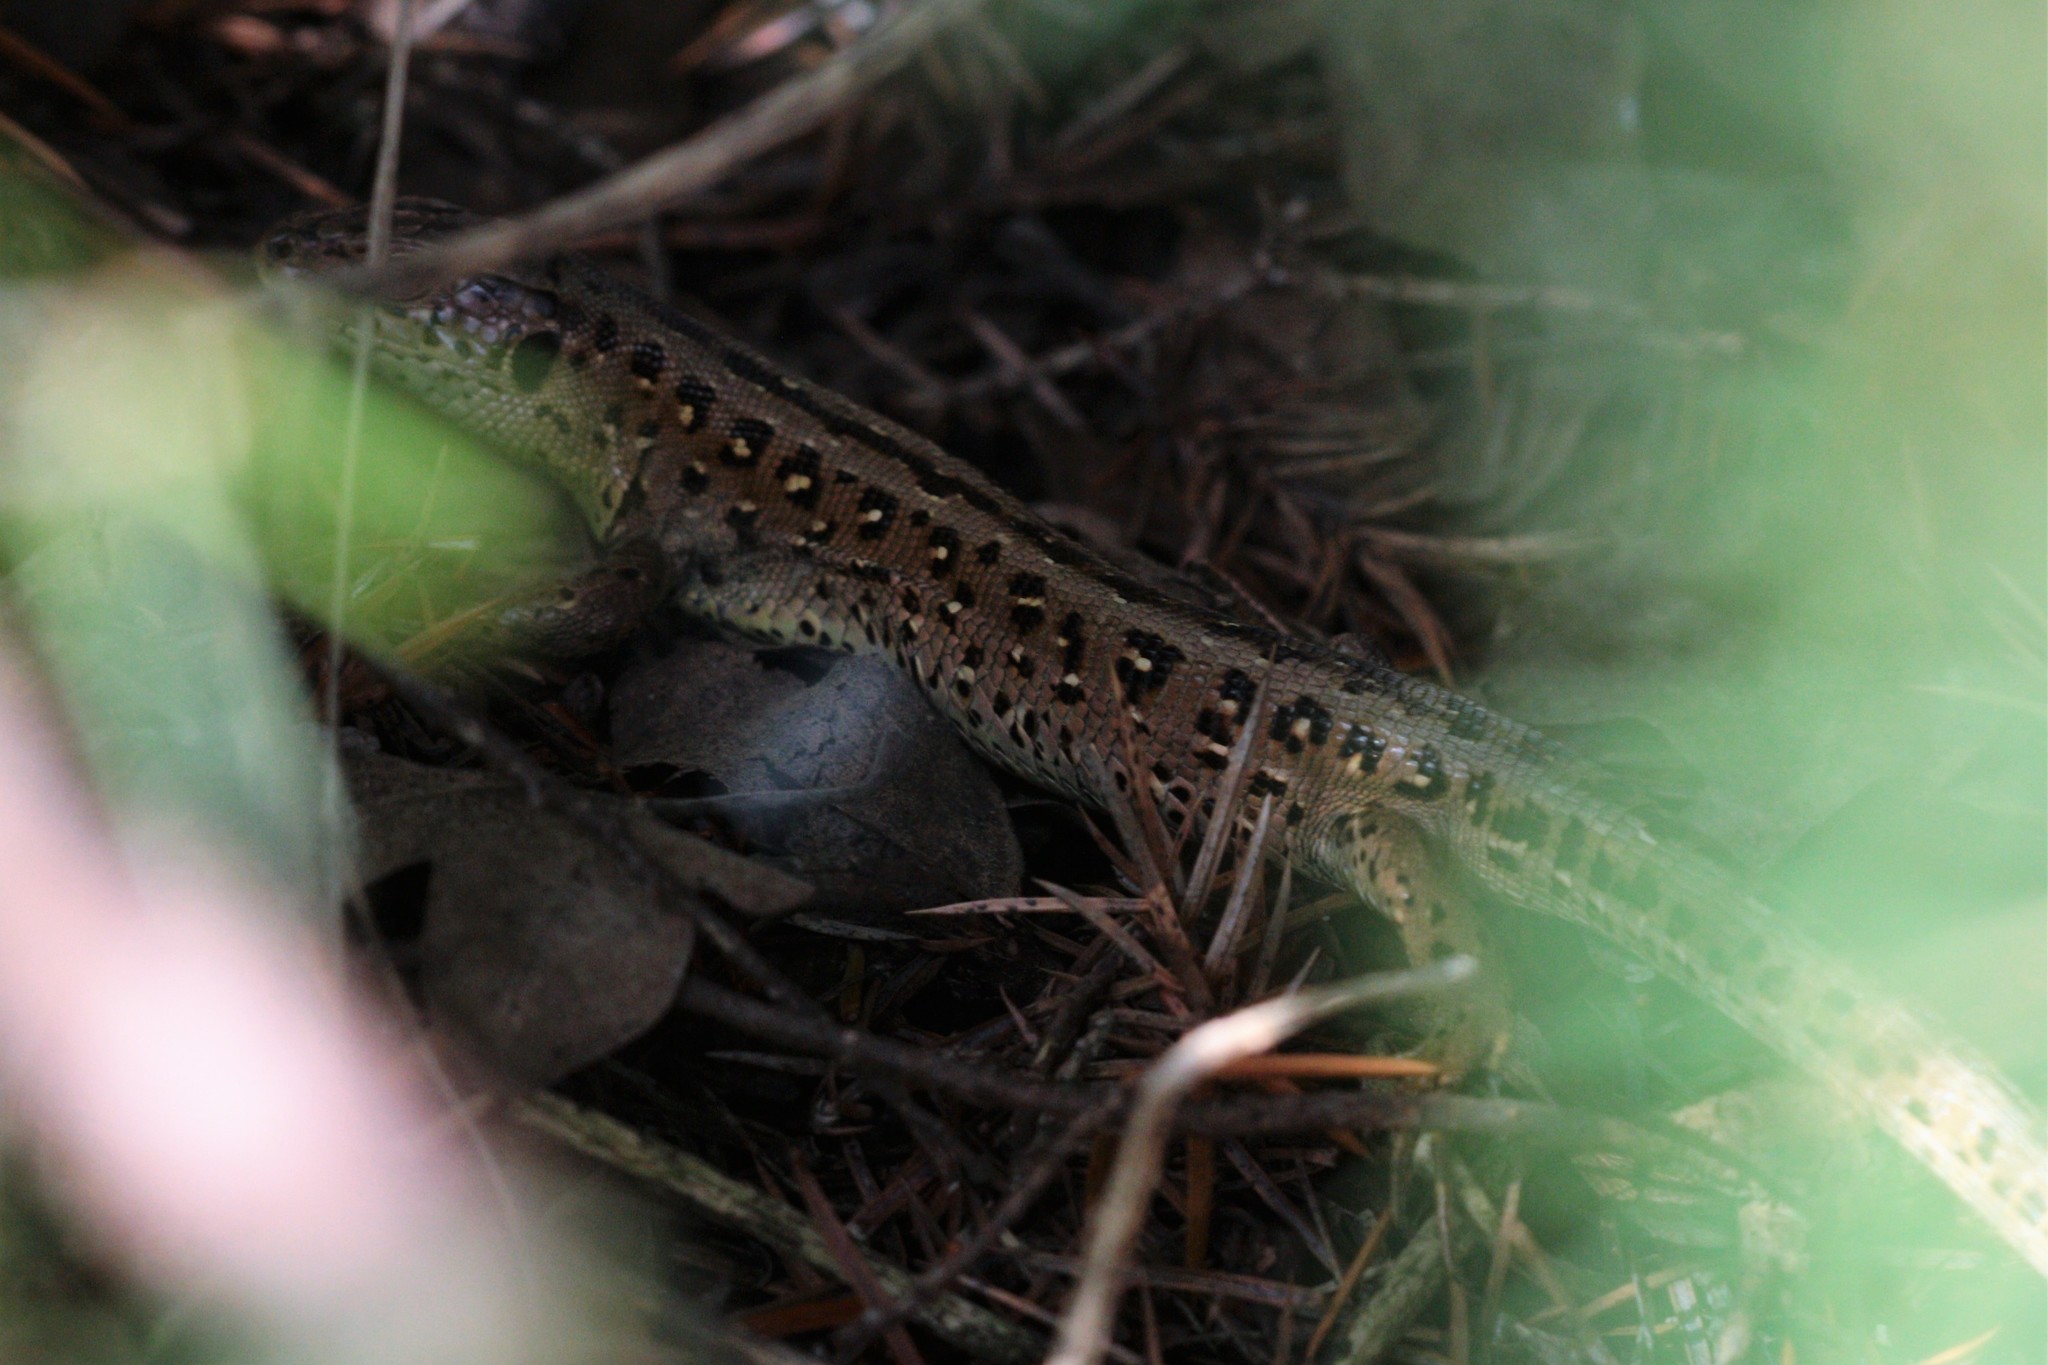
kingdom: Animalia
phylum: Chordata
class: Squamata
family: Lacertidae
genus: Lacerta
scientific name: Lacerta agilis
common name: Sand lizard
